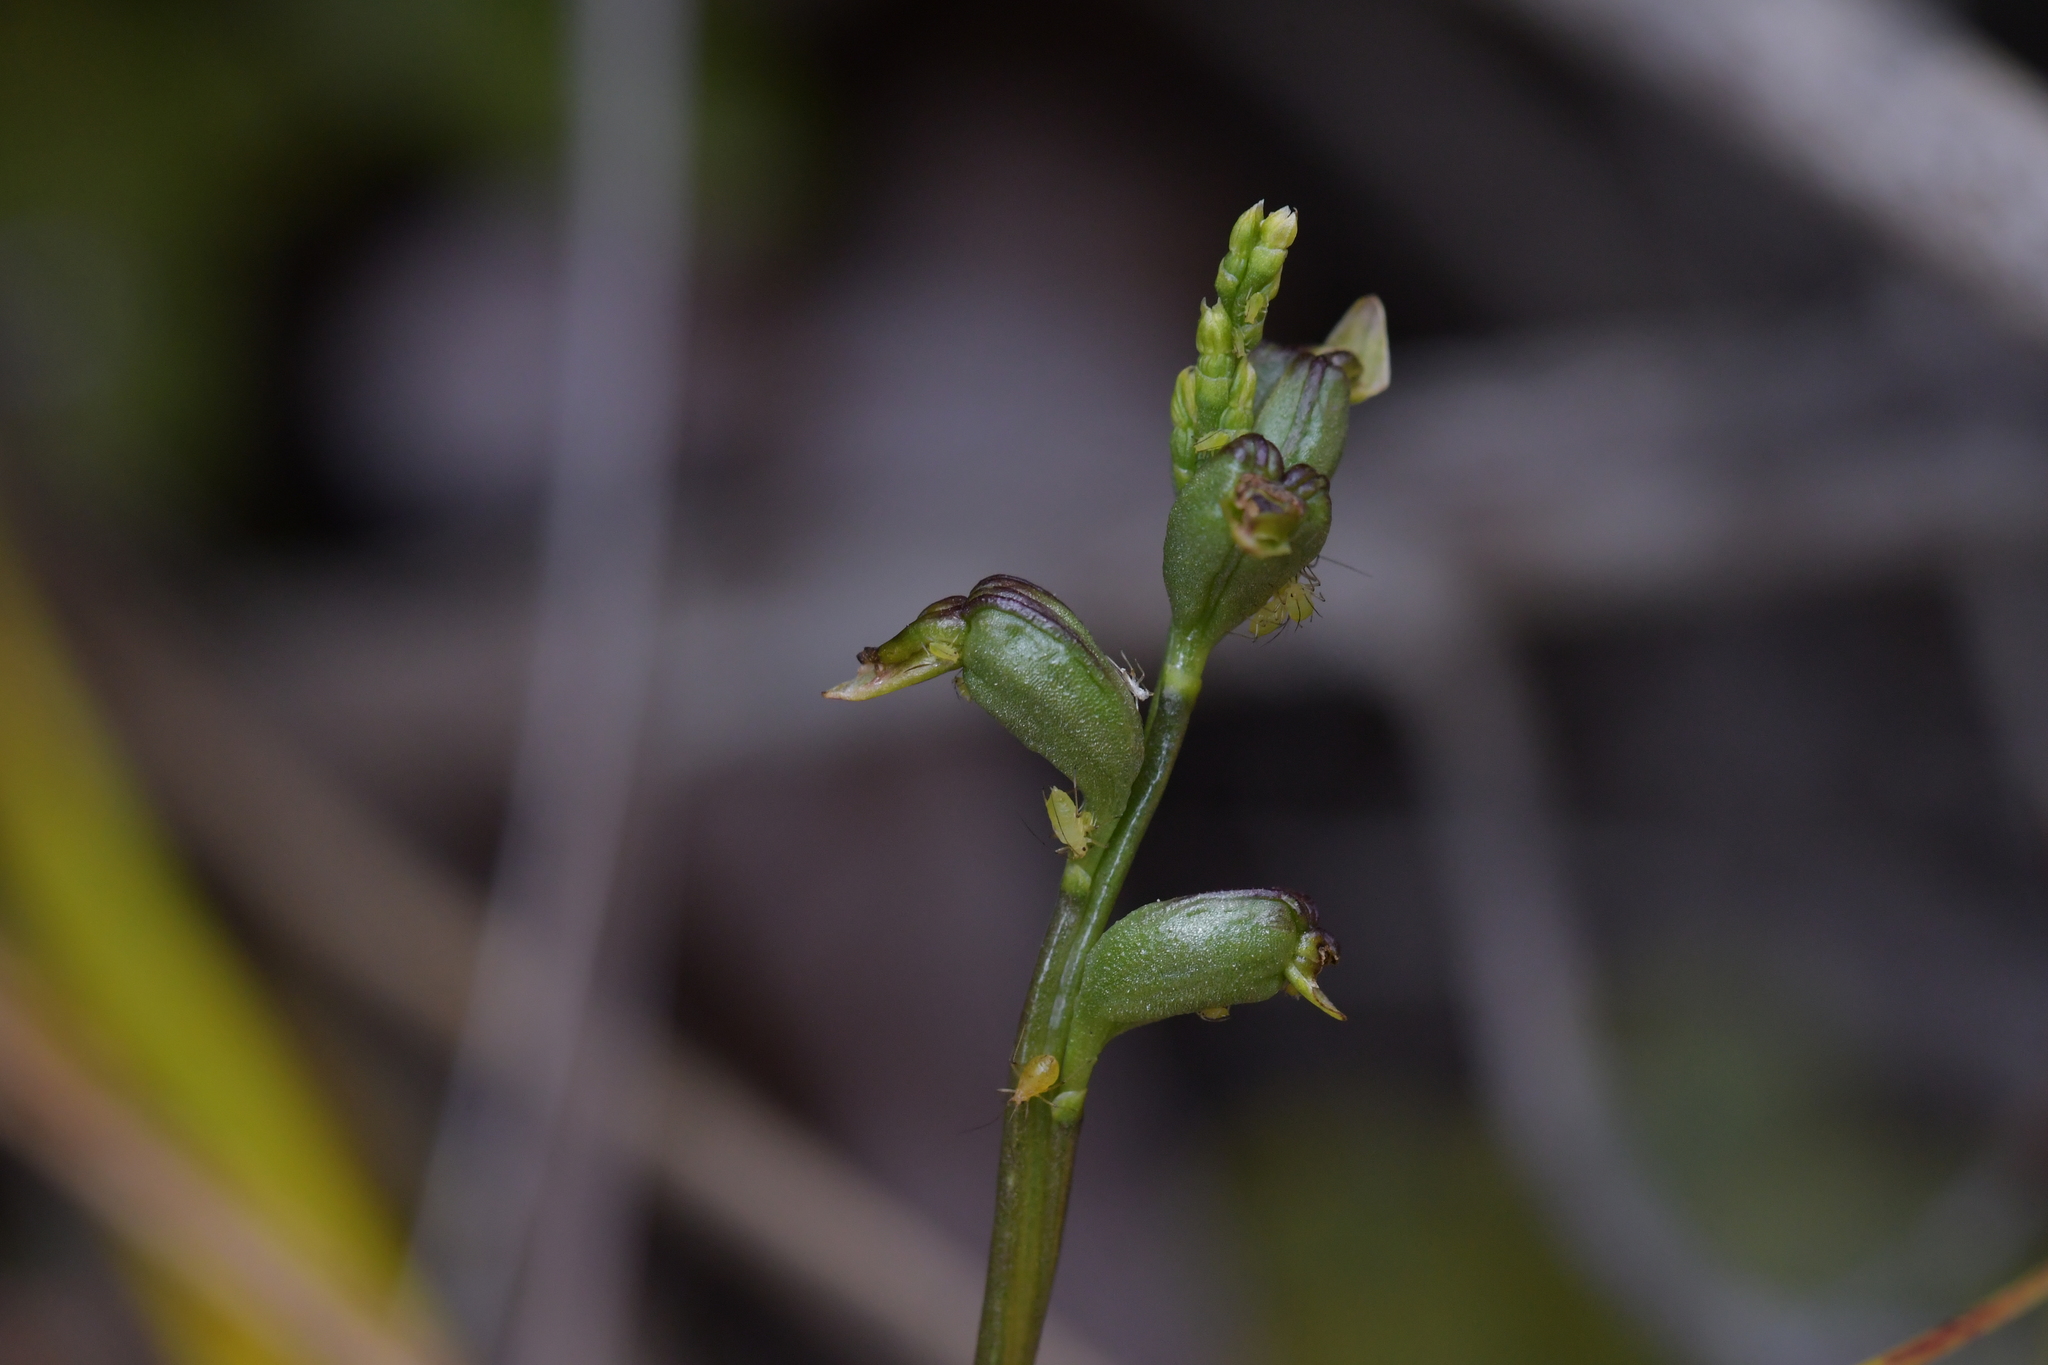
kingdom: Plantae
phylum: Tracheophyta
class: Liliopsida
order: Asparagales
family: Orchidaceae
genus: Prasophyllum
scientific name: Prasophyllum colensoi
